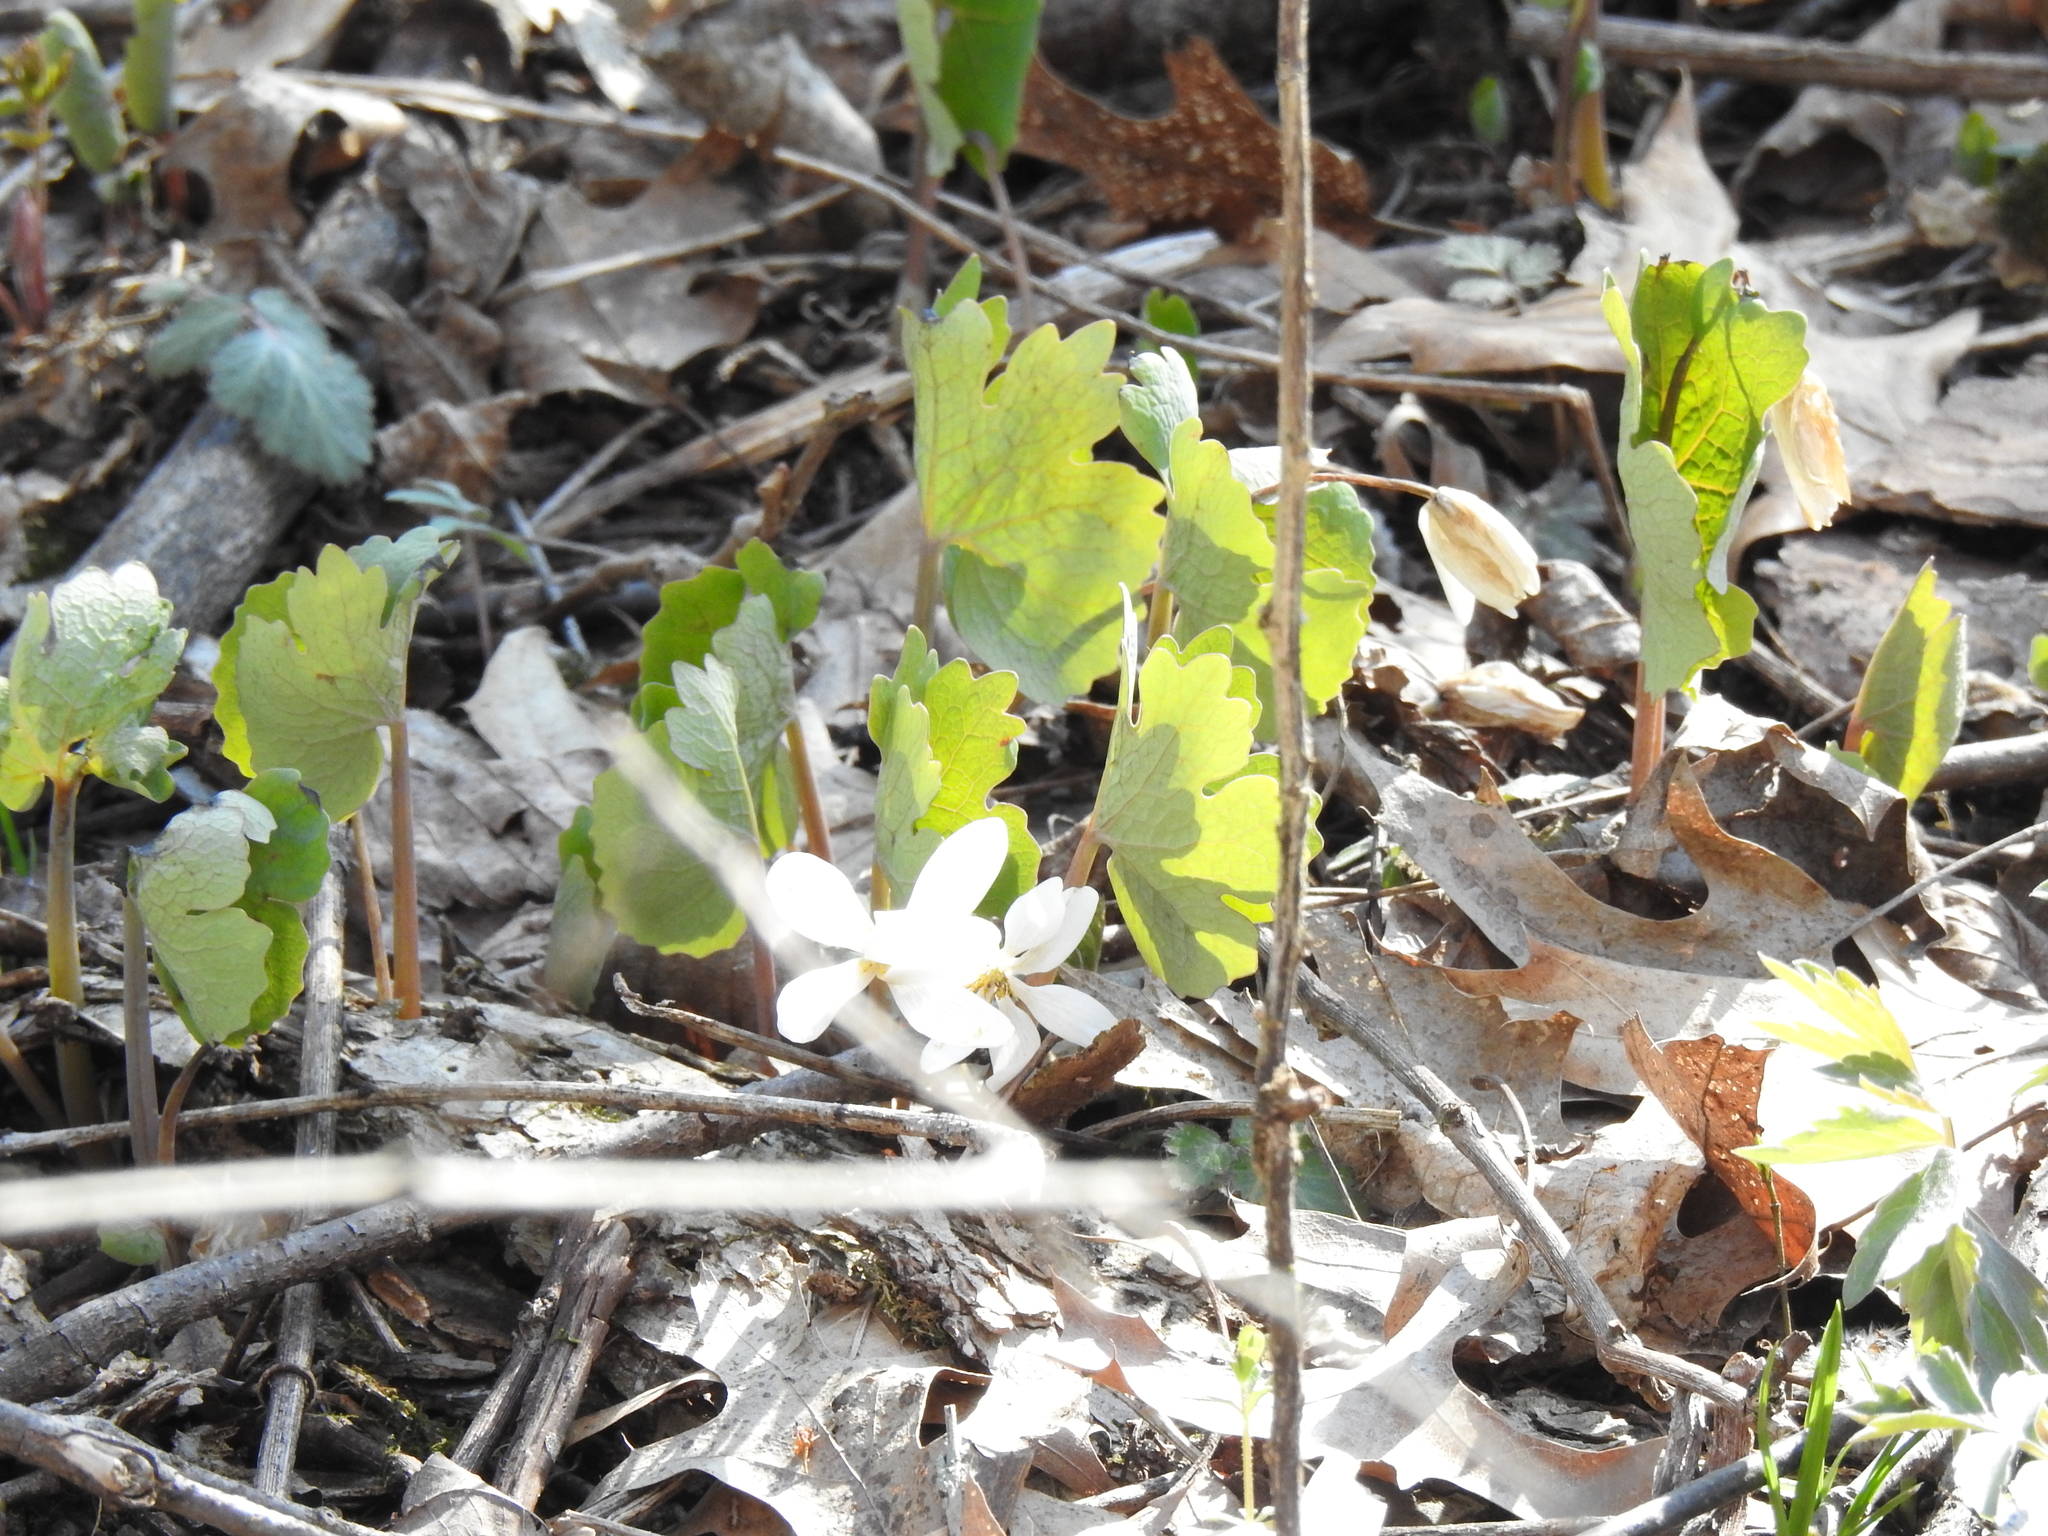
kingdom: Plantae
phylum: Tracheophyta
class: Magnoliopsida
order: Ranunculales
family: Papaveraceae
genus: Sanguinaria
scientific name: Sanguinaria canadensis
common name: Bloodroot
